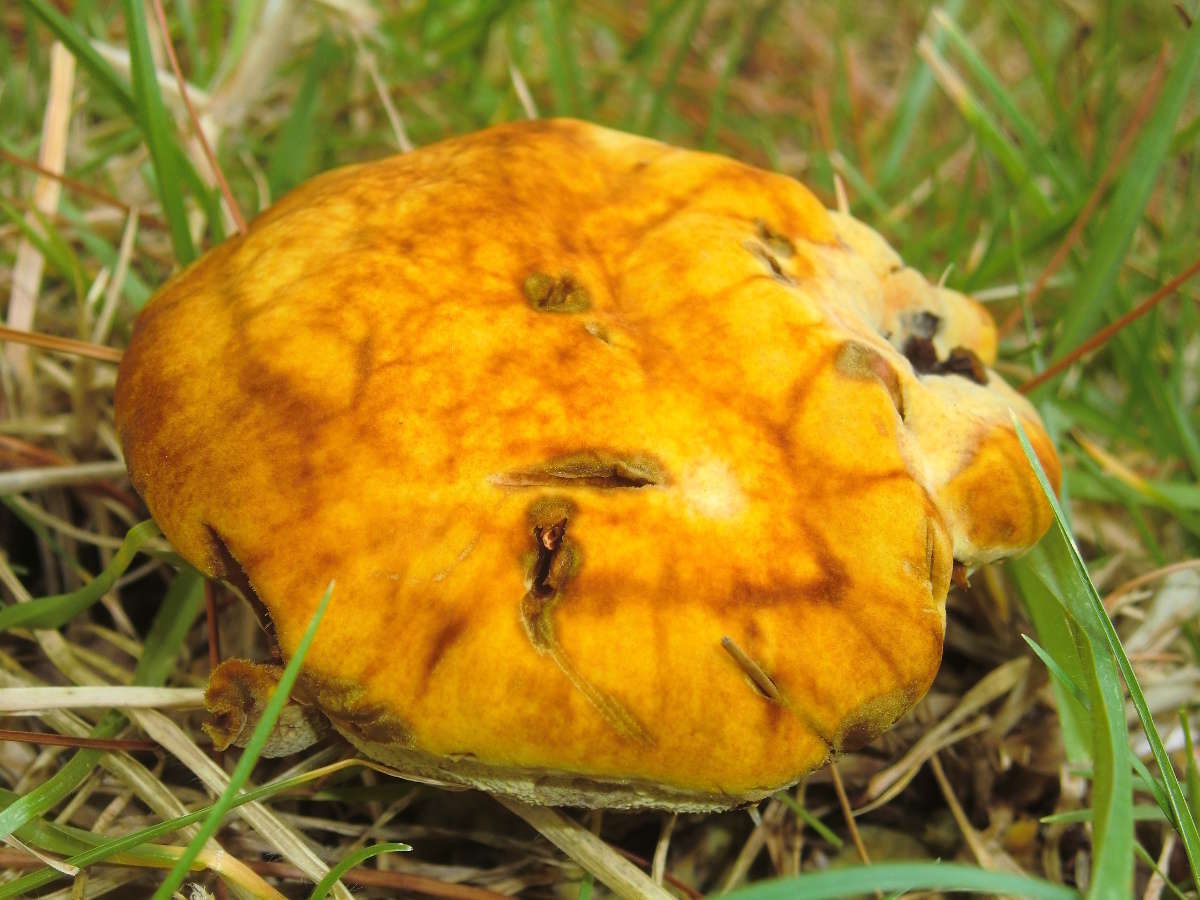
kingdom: Fungi
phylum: Basidiomycota
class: Agaricomycetes
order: Polyporales
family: Laetiporaceae
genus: Phaeolus
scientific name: Phaeolus schweinitzii
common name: Dyer's mazegill
